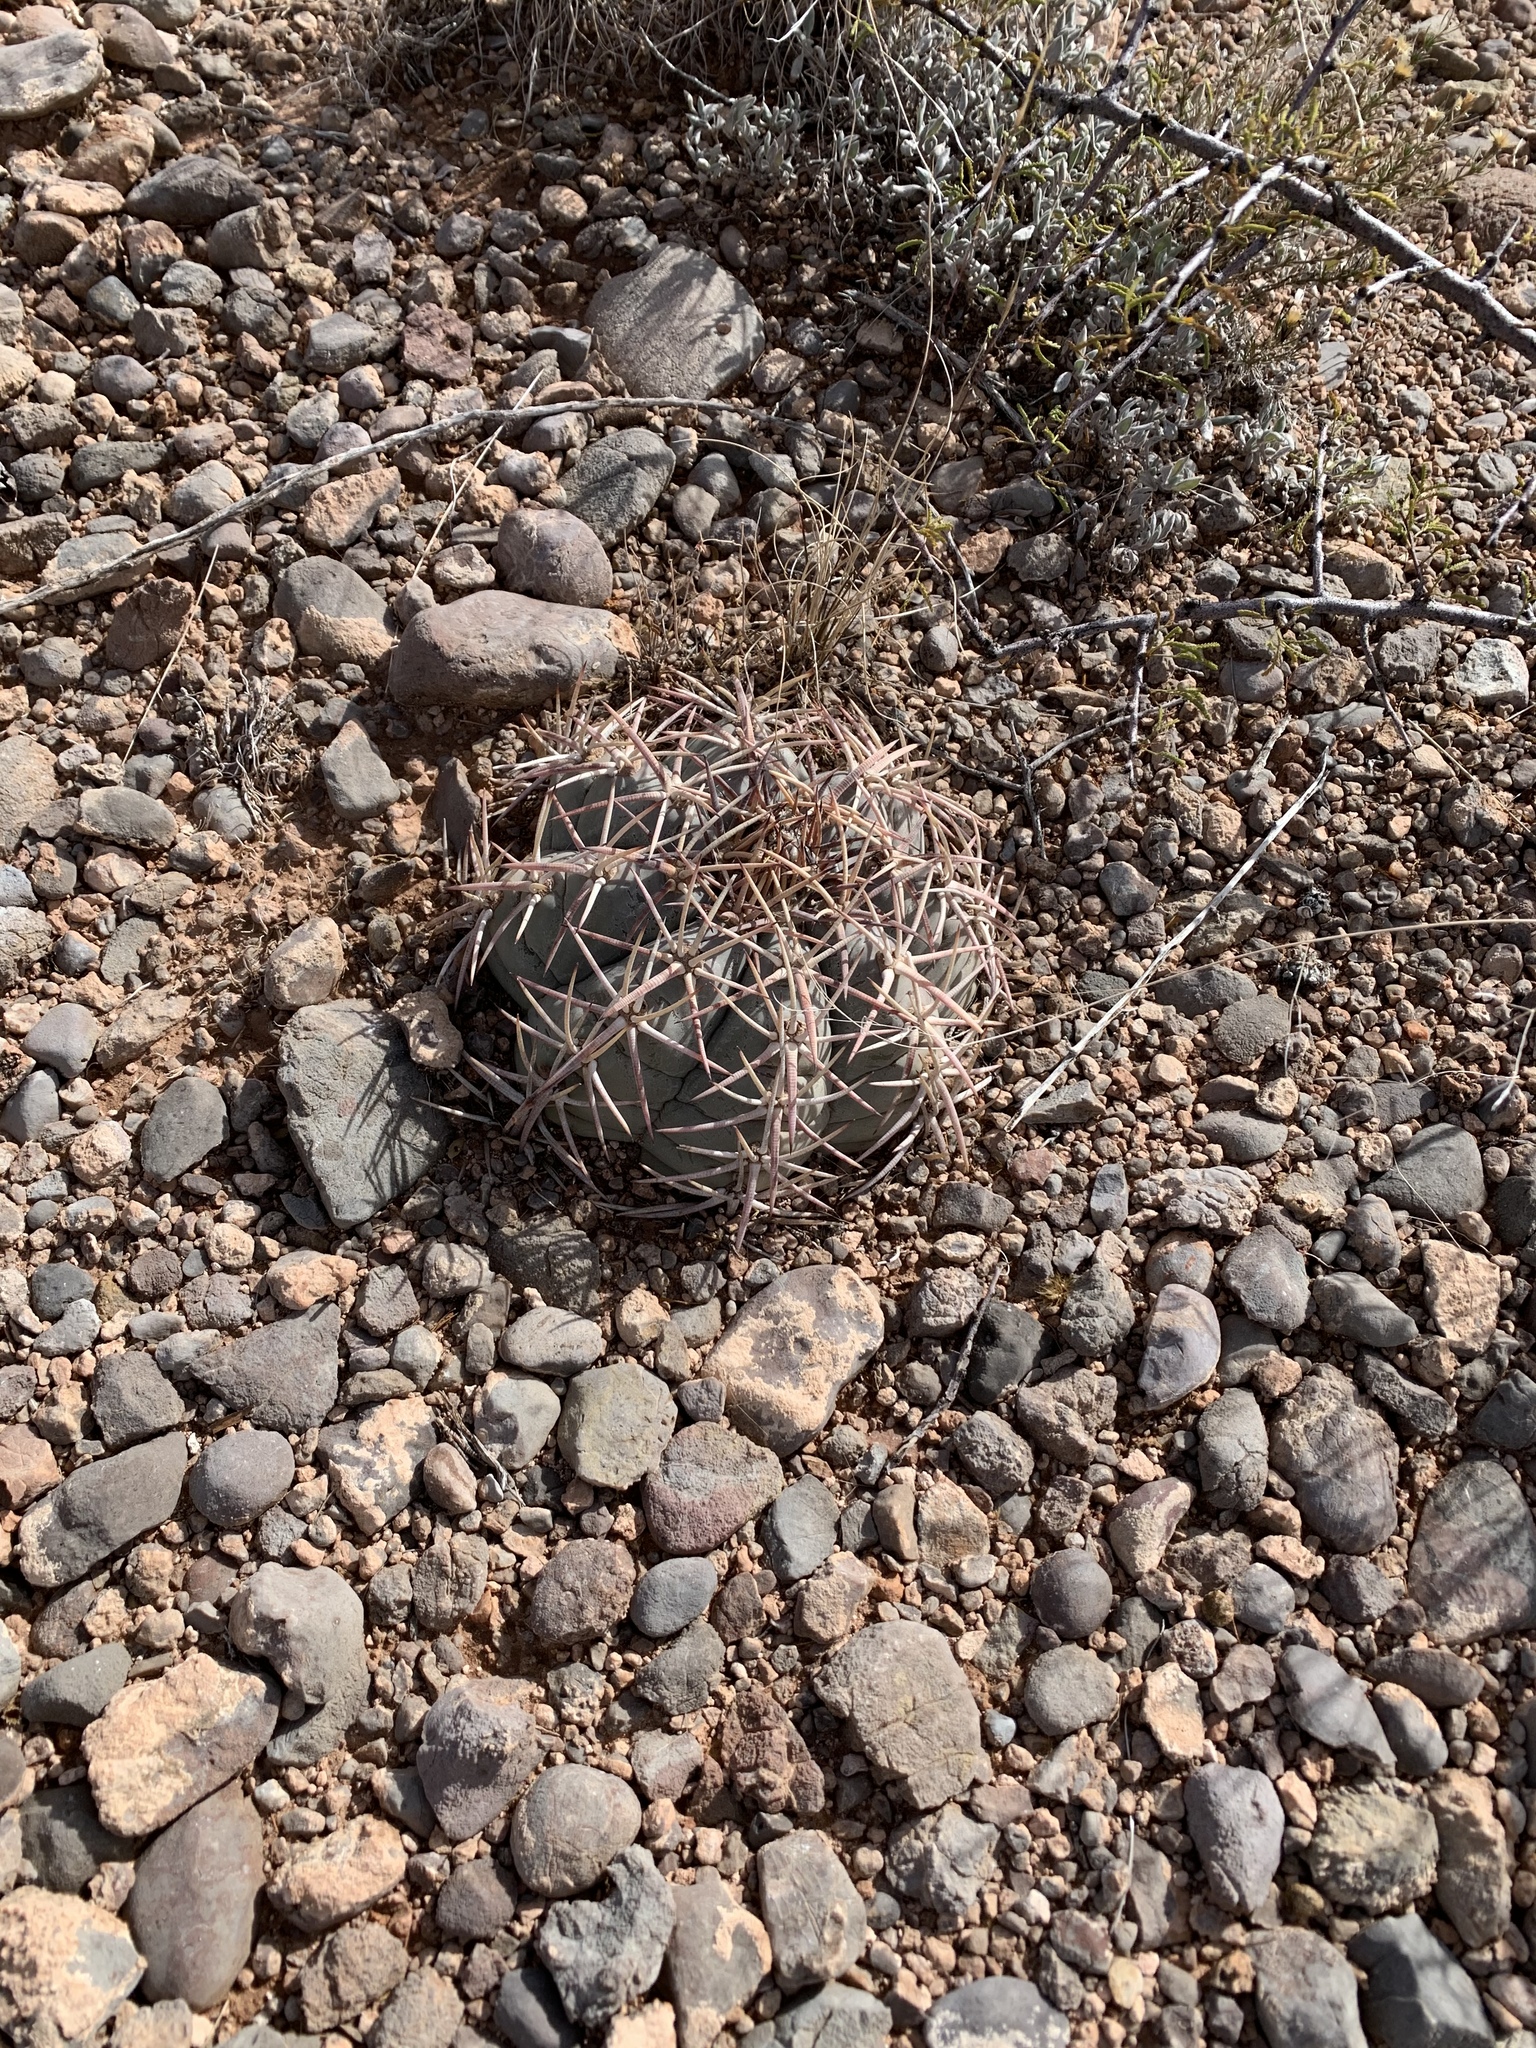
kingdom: Plantae
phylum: Tracheophyta
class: Magnoliopsida
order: Caryophyllales
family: Cactaceae
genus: Echinocactus
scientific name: Echinocactus horizonthalonius
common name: Devilshead
